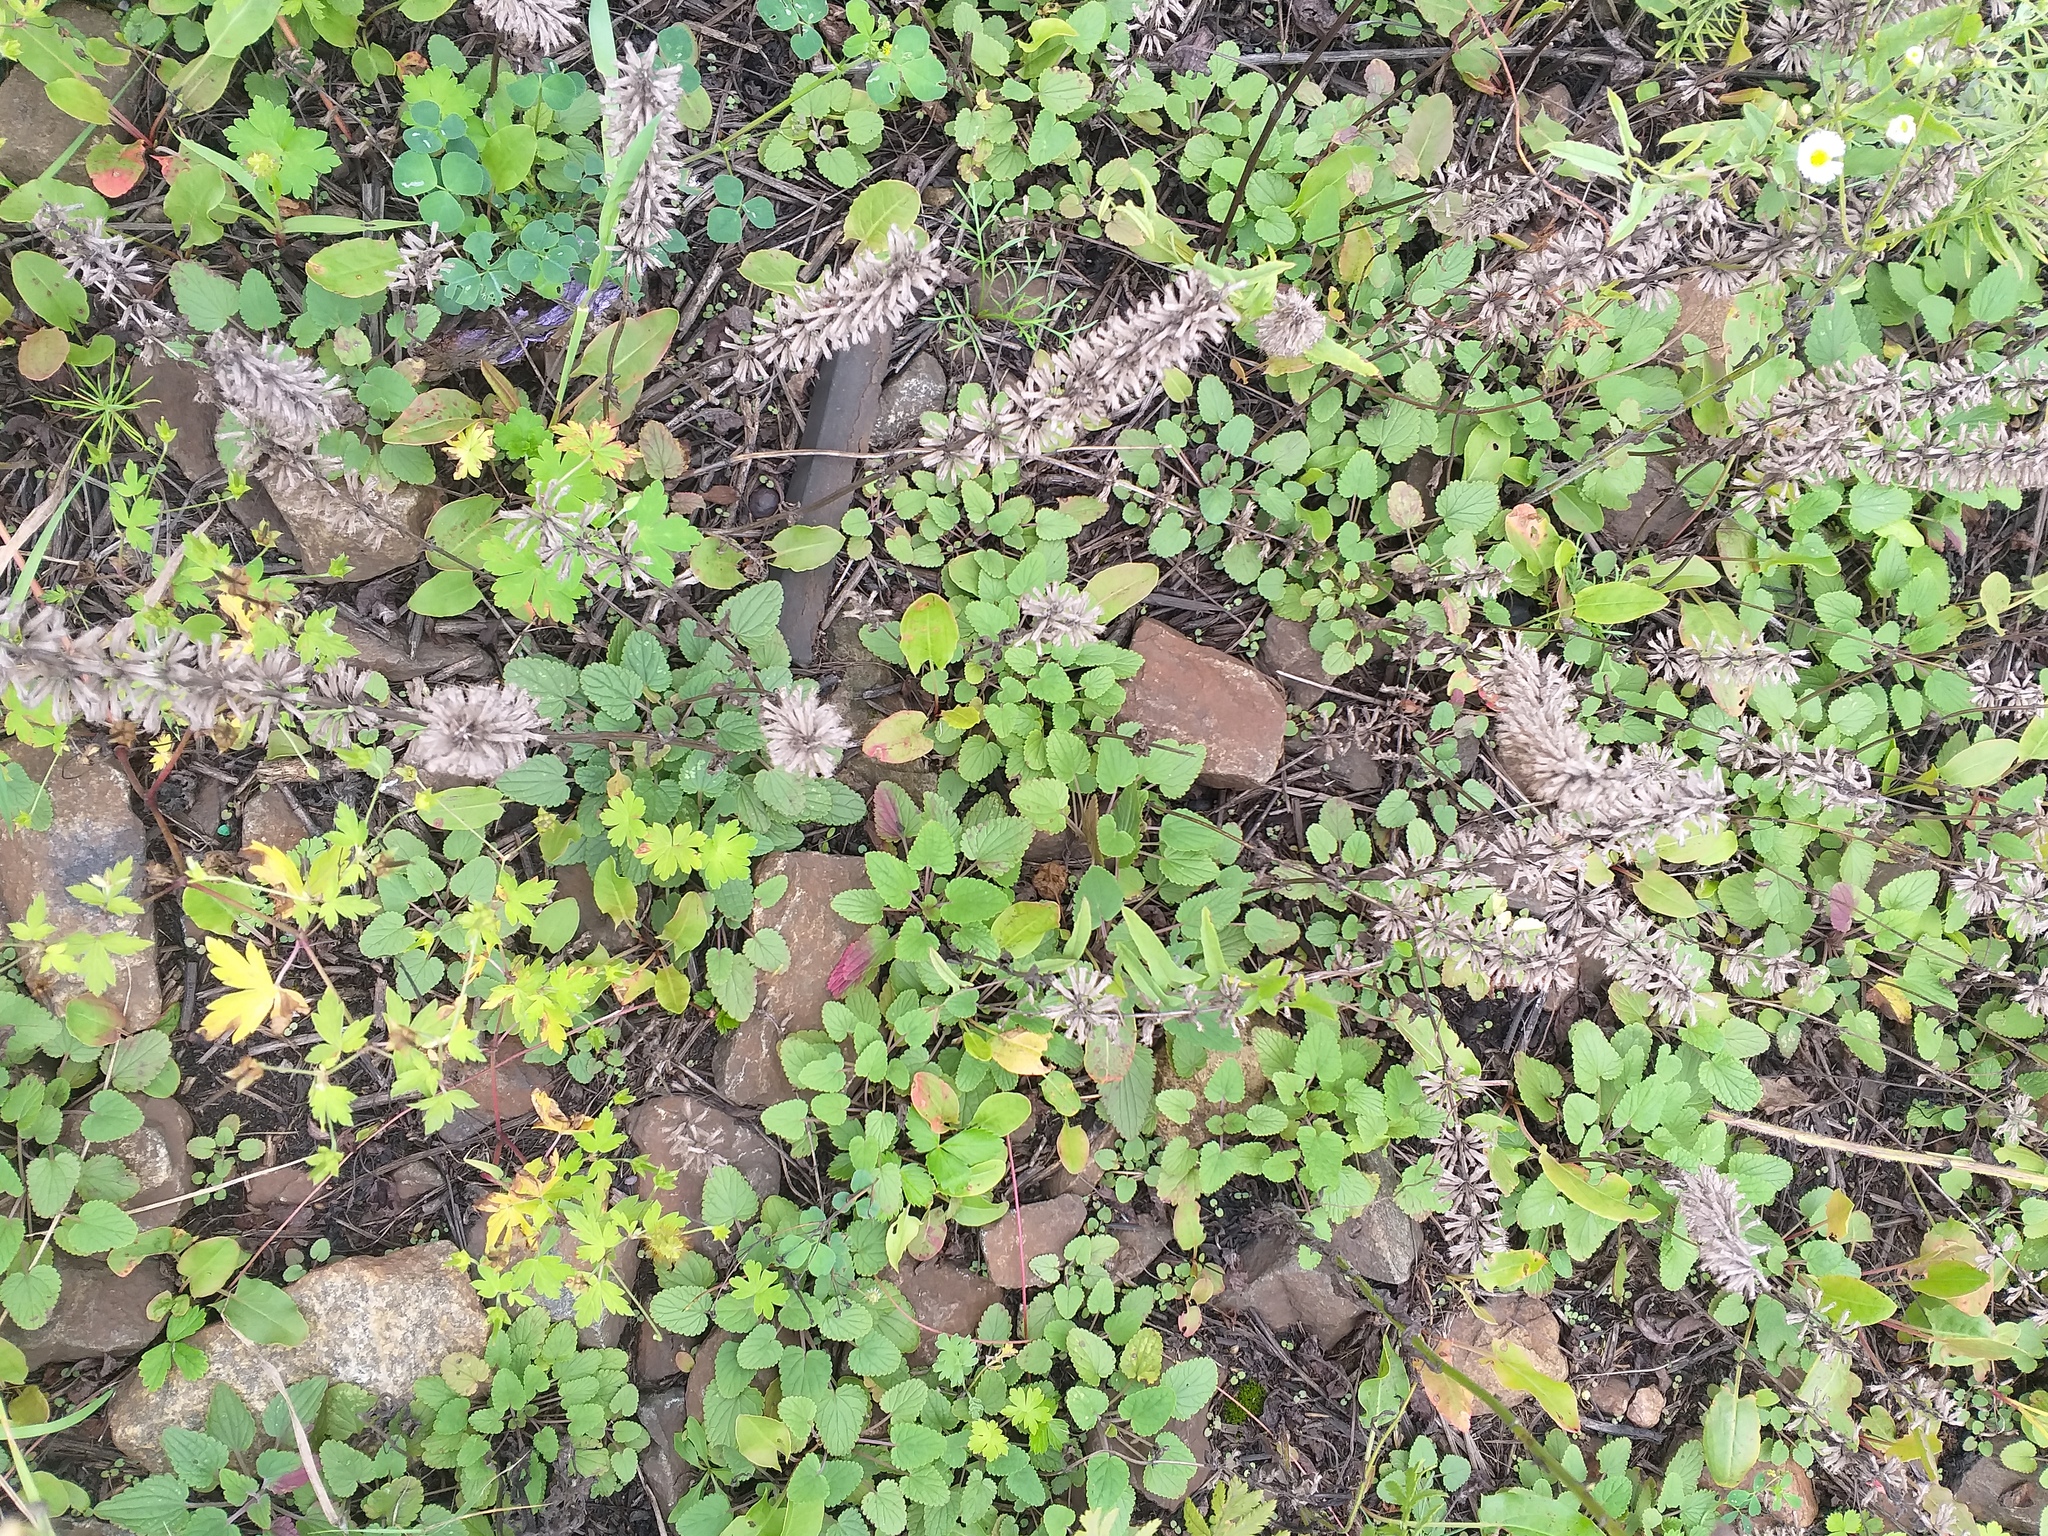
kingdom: Plantae
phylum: Tracheophyta
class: Magnoliopsida
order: Lamiales
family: Lamiaceae
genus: Dracocephalum
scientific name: Dracocephalum nutans
